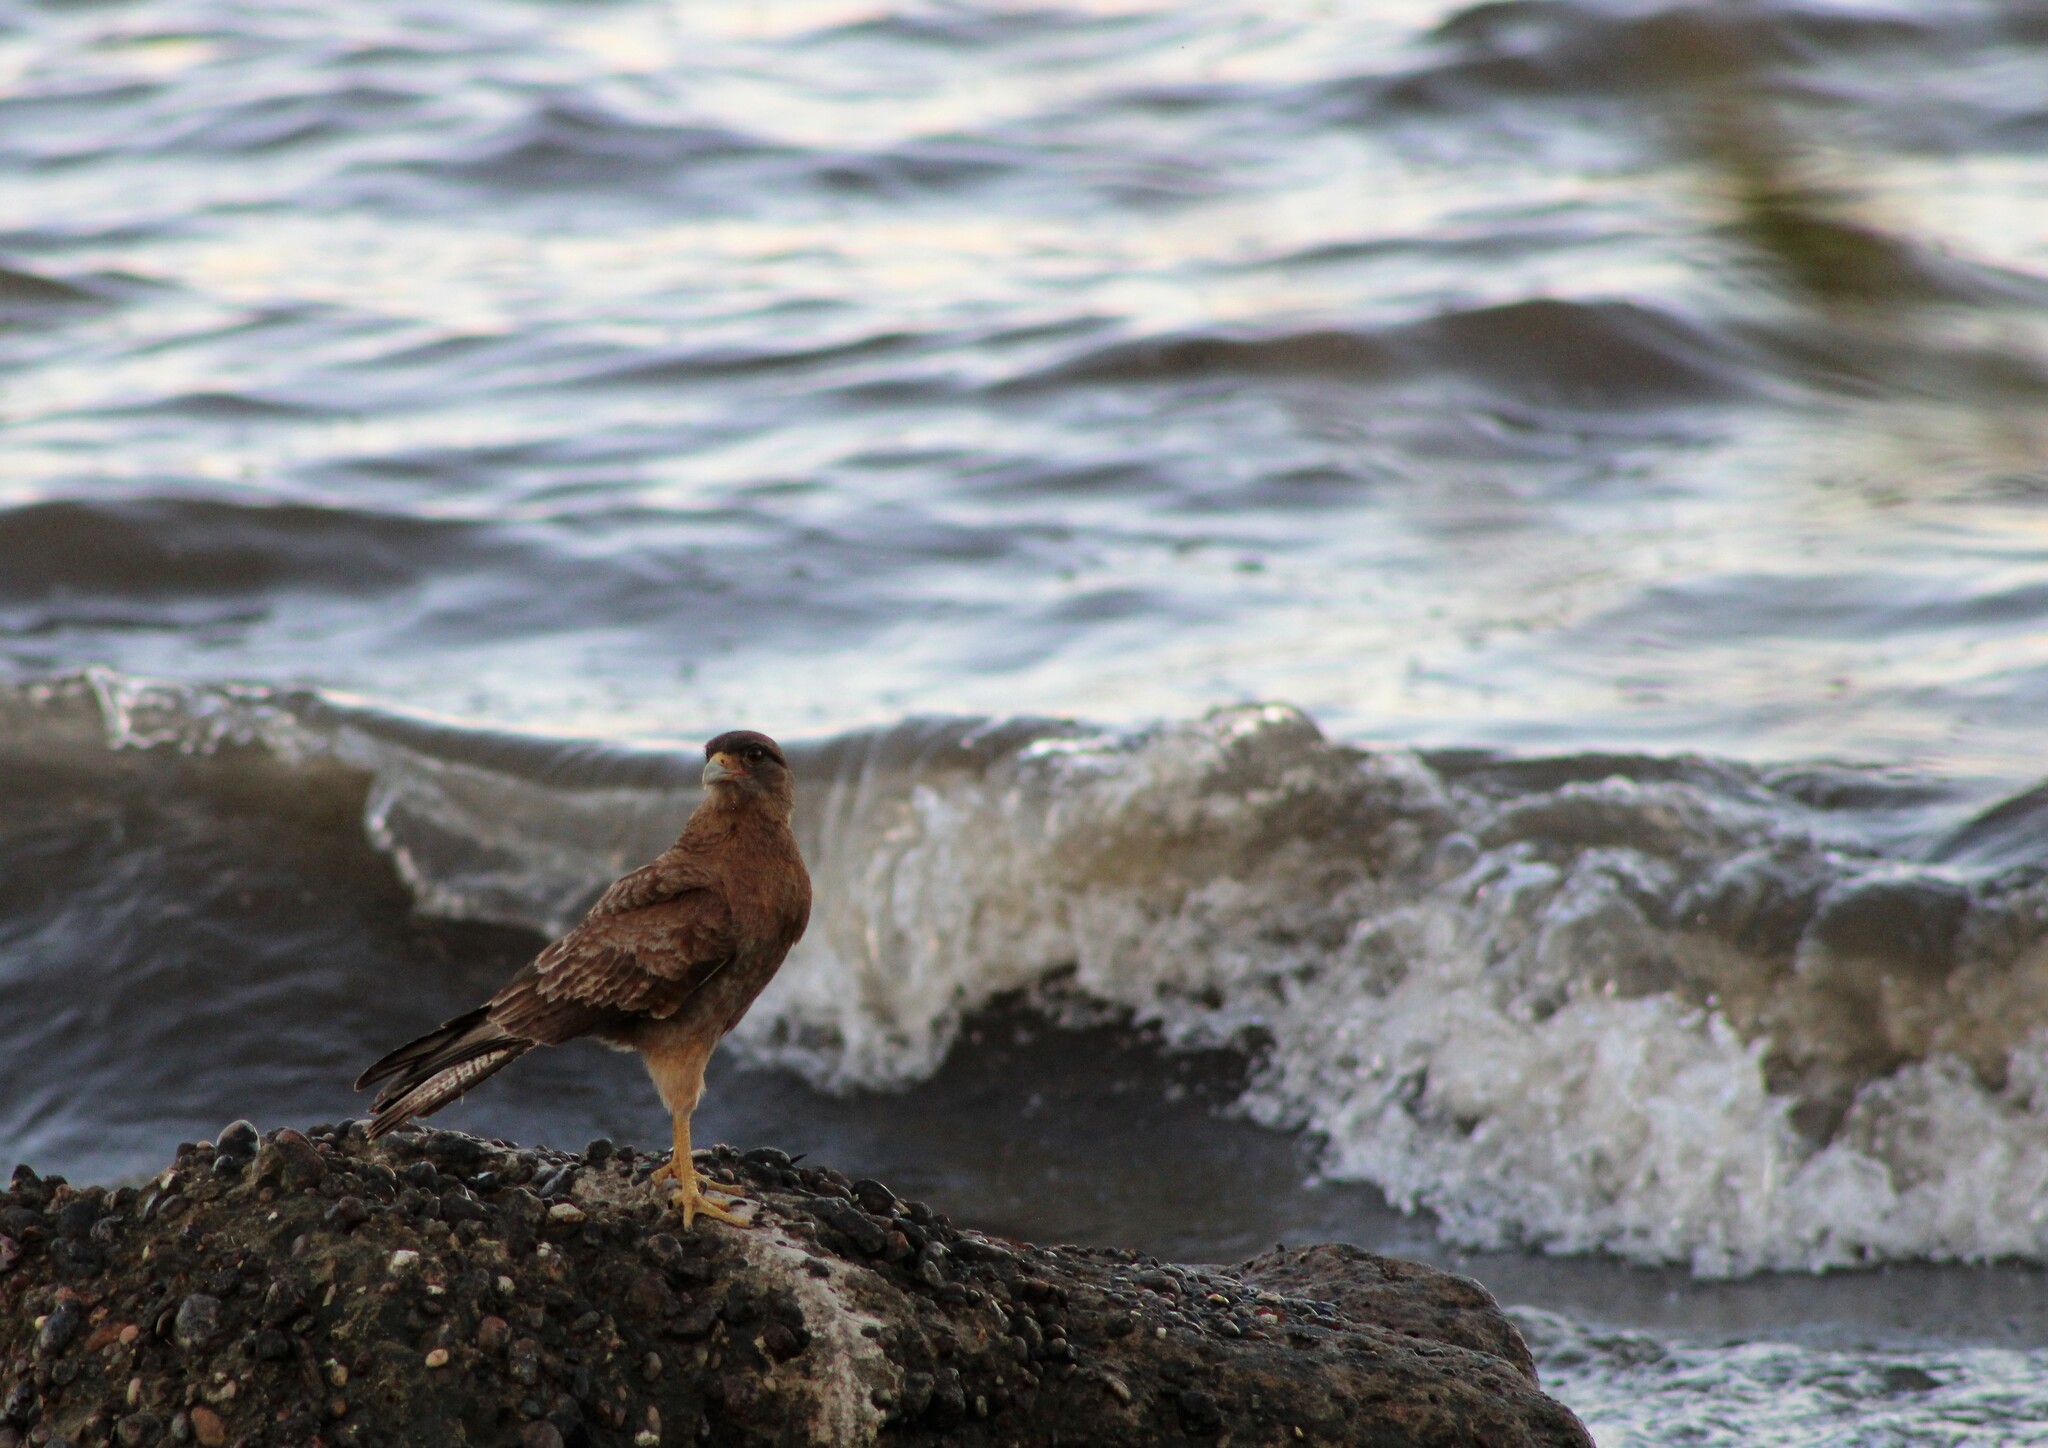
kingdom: Animalia
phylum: Chordata
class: Aves
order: Falconiformes
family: Falconidae
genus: Daptrius
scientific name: Daptrius
